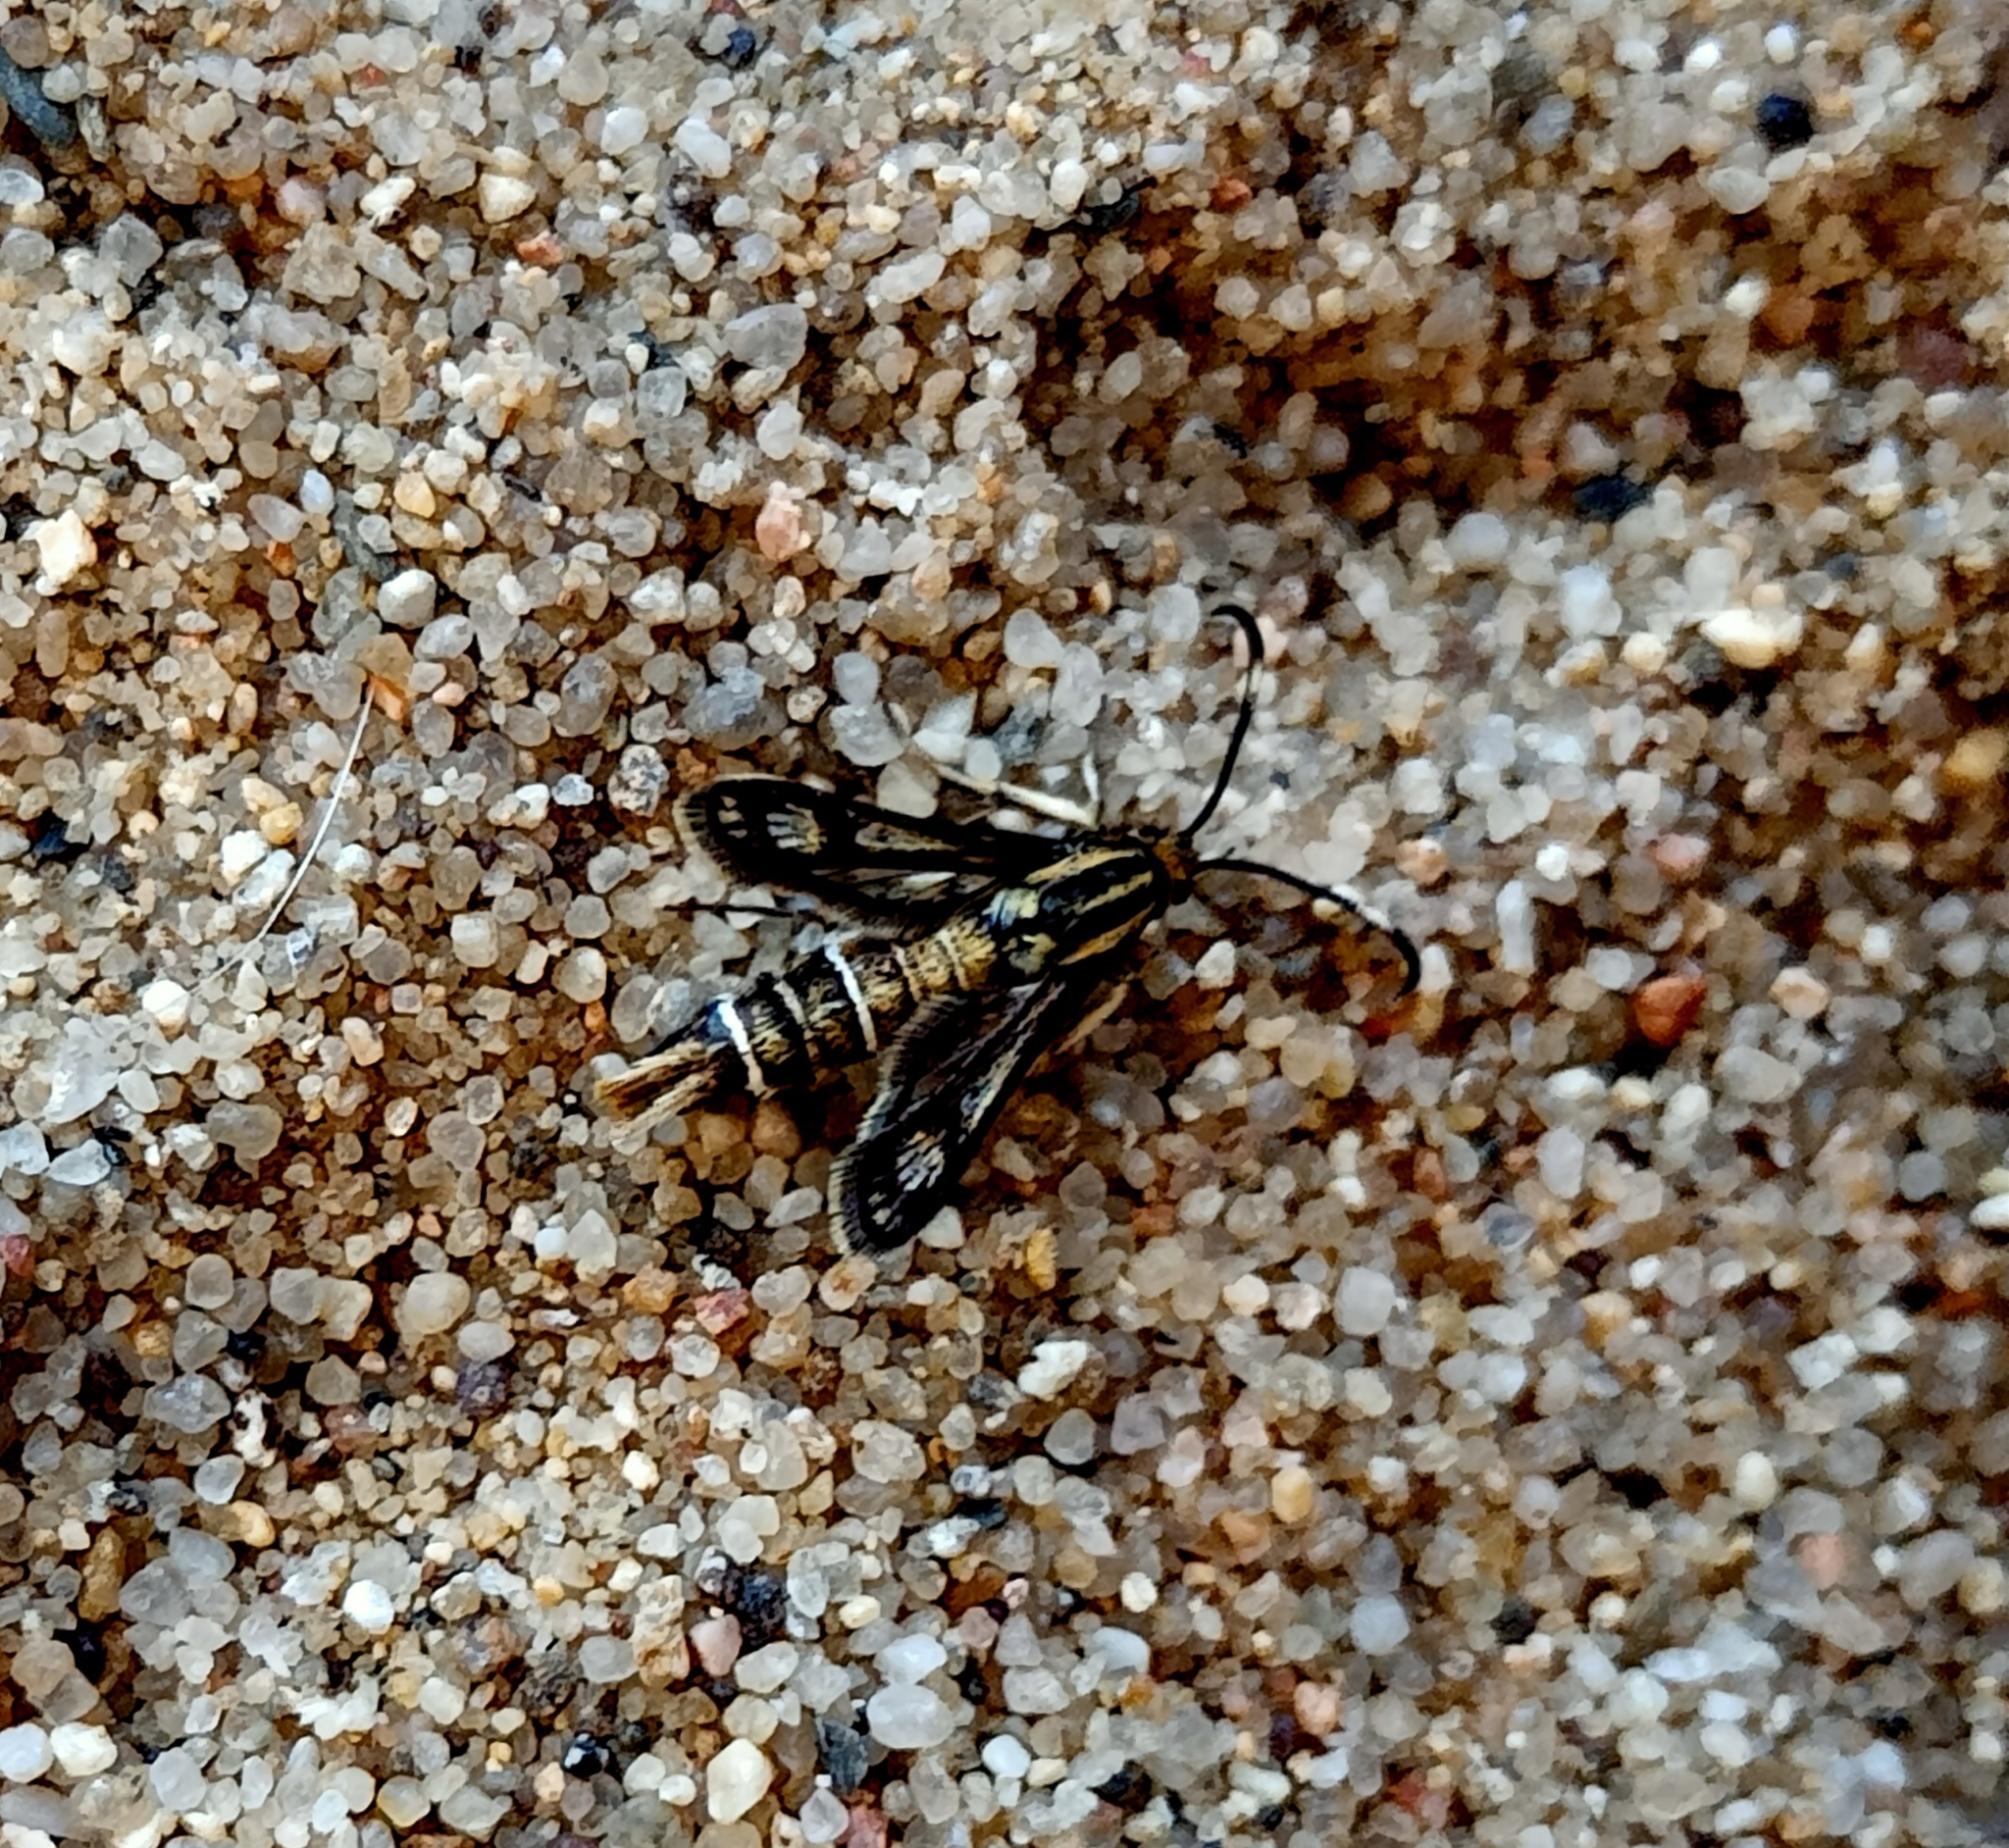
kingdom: Animalia
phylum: Arthropoda
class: Insecta
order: Lepidoptera
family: Sesiidae
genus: Pyropteron
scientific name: Pyropteron muscaeformis
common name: Thrift clearwing
